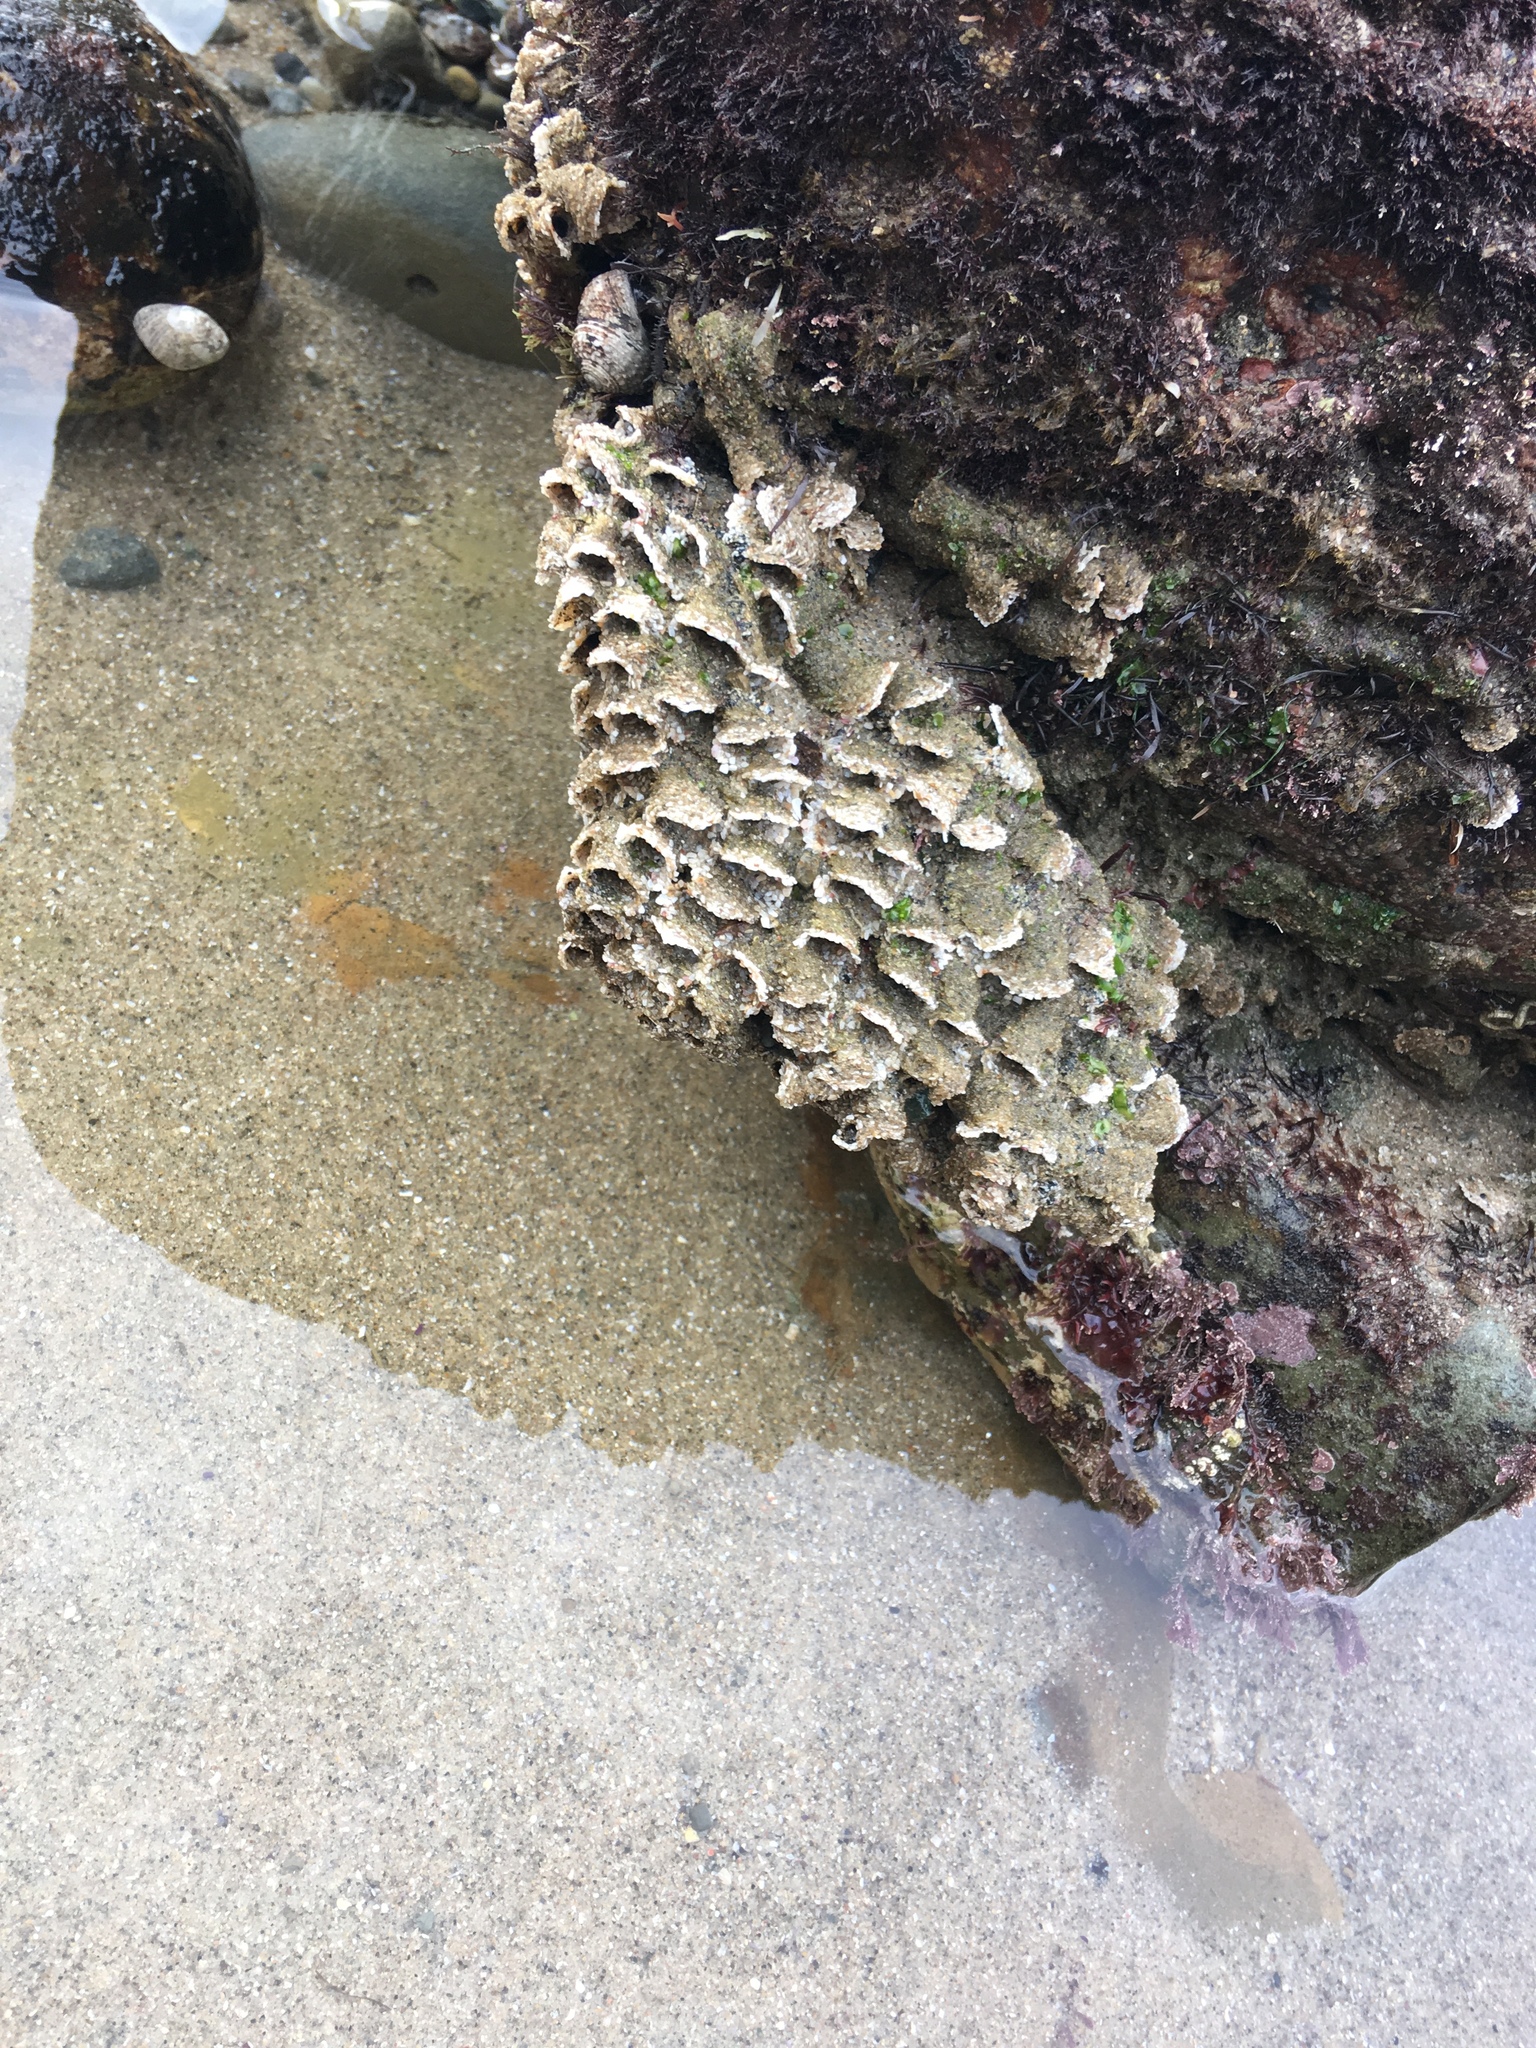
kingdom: Animalia
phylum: Annelida
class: Polychaeta
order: Sabellida
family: Sabellariidae
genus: Phragmatopoma
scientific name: Phragmatopoma californica
